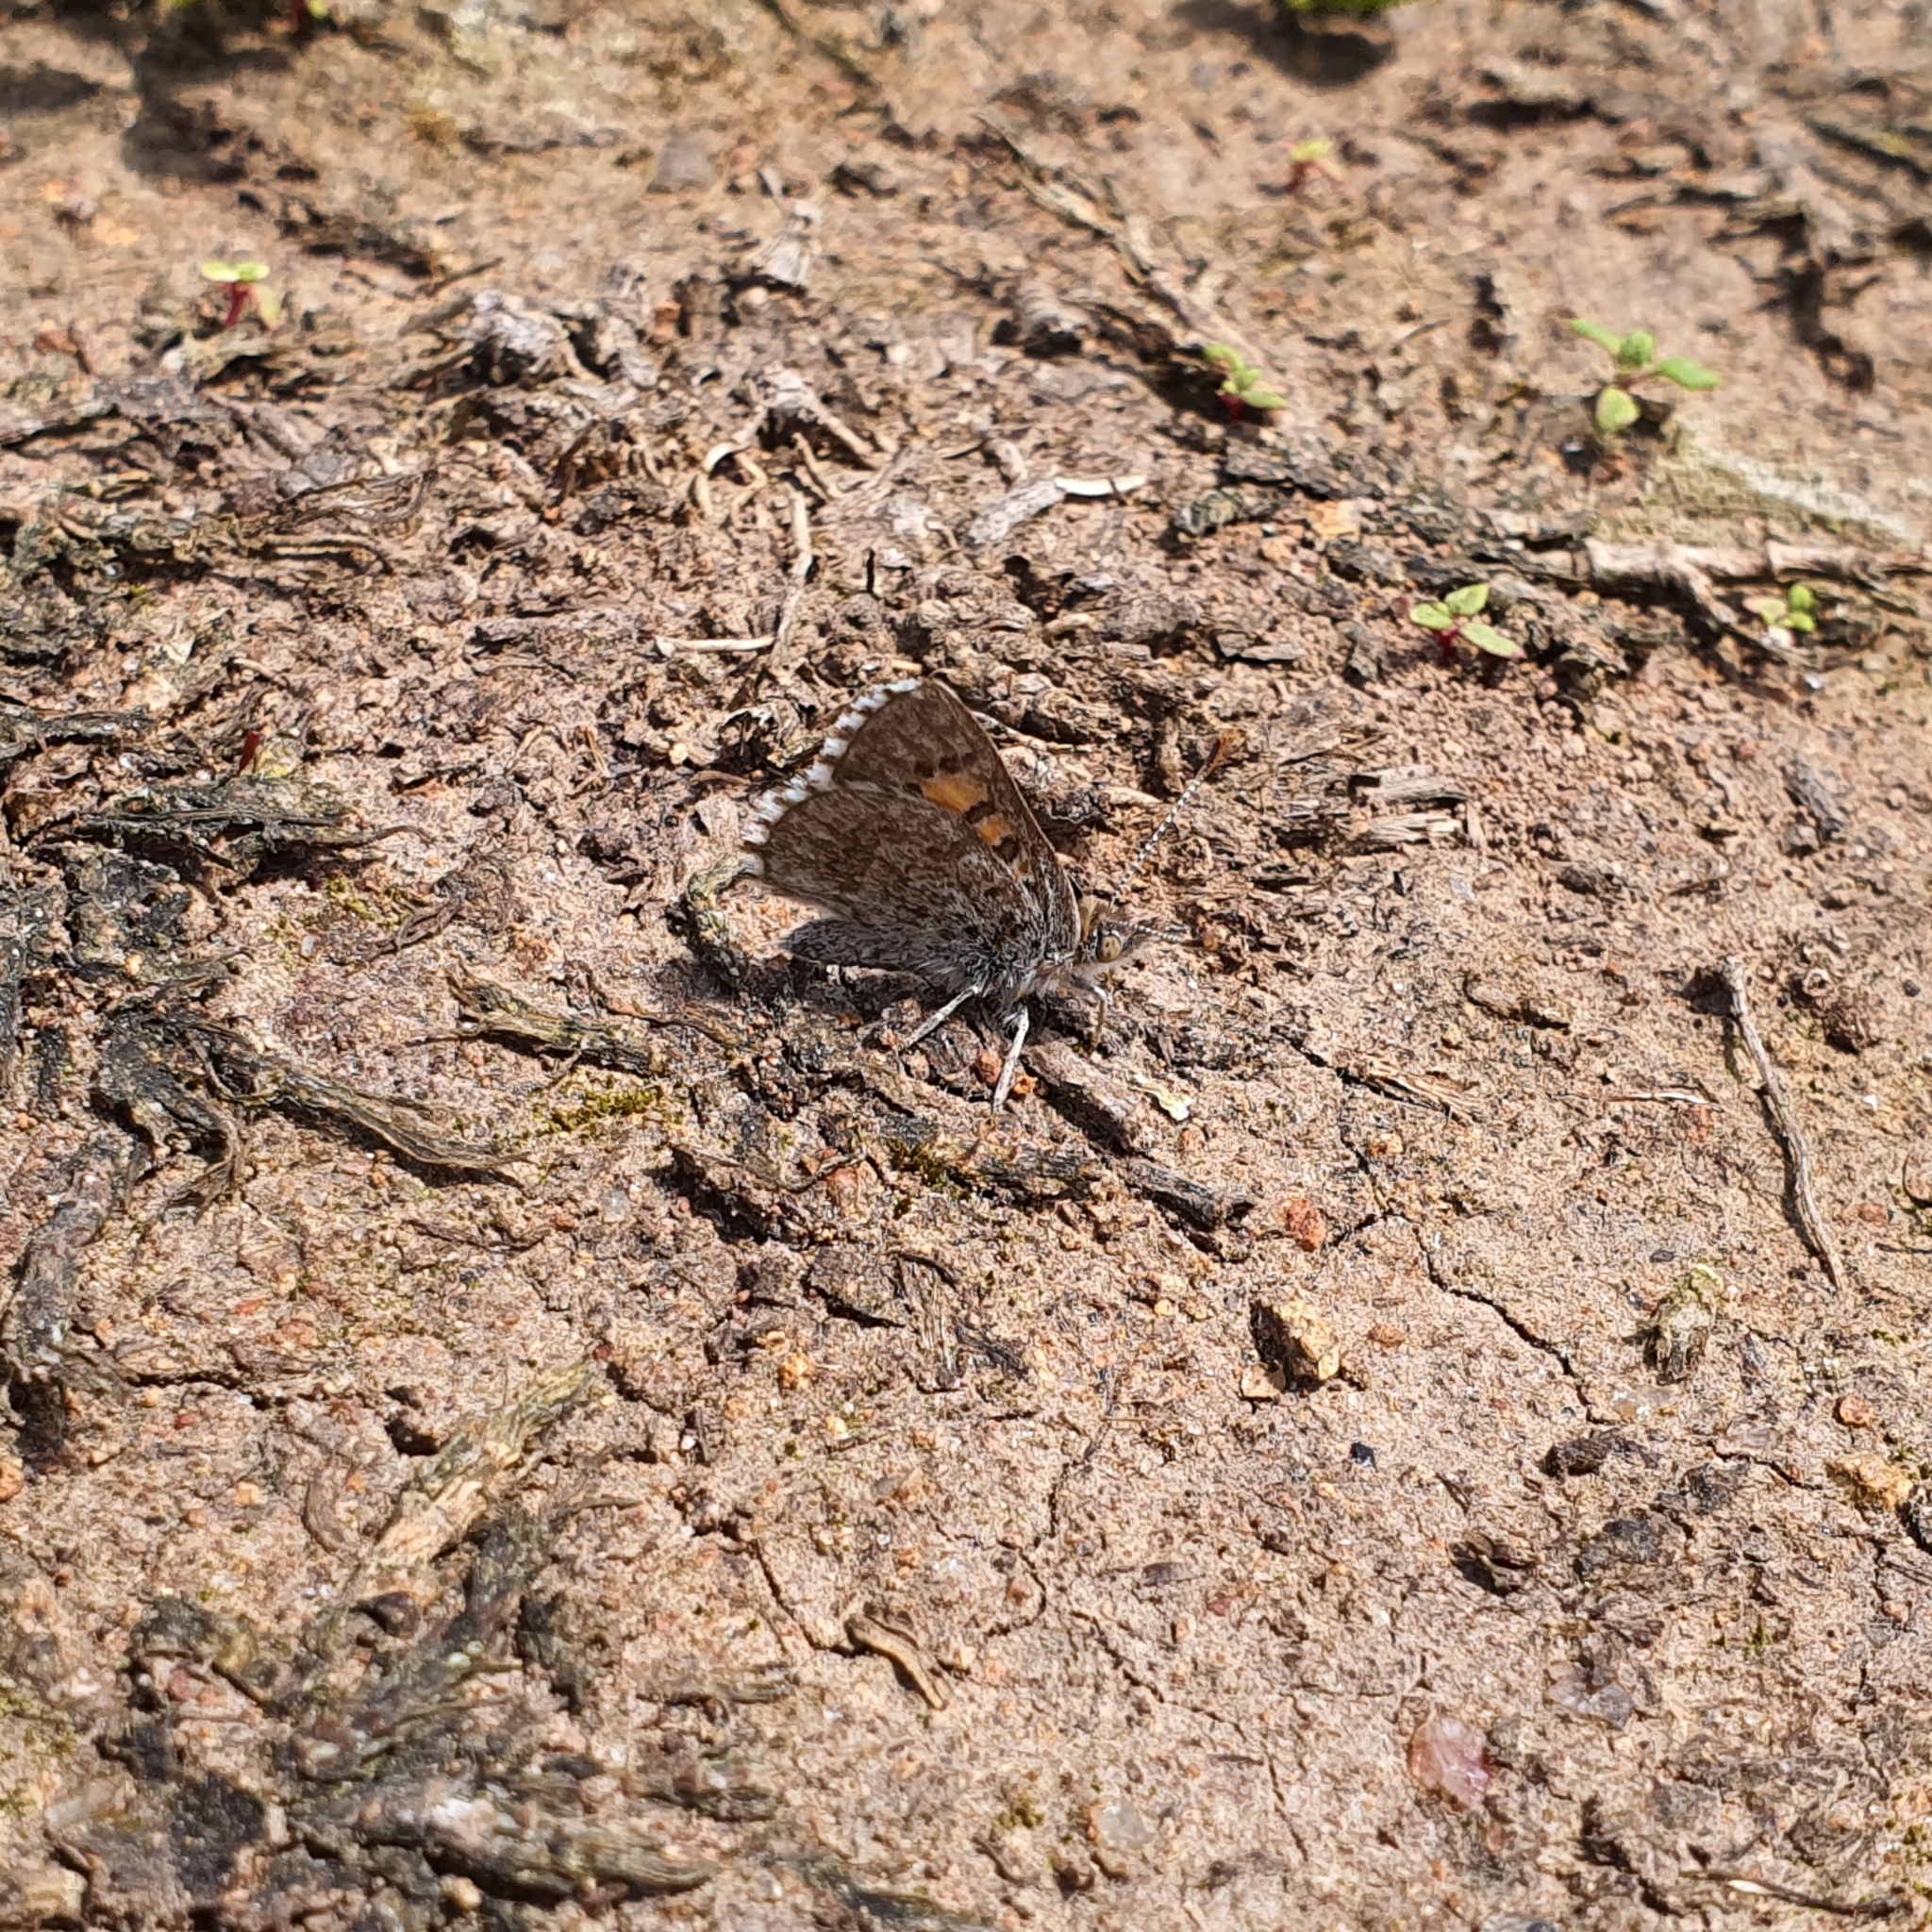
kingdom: Animalia
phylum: Arthropoda
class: Insecta
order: Lepidoptera
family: Lycaenidae
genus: Lucia
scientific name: Lucia limbaria
